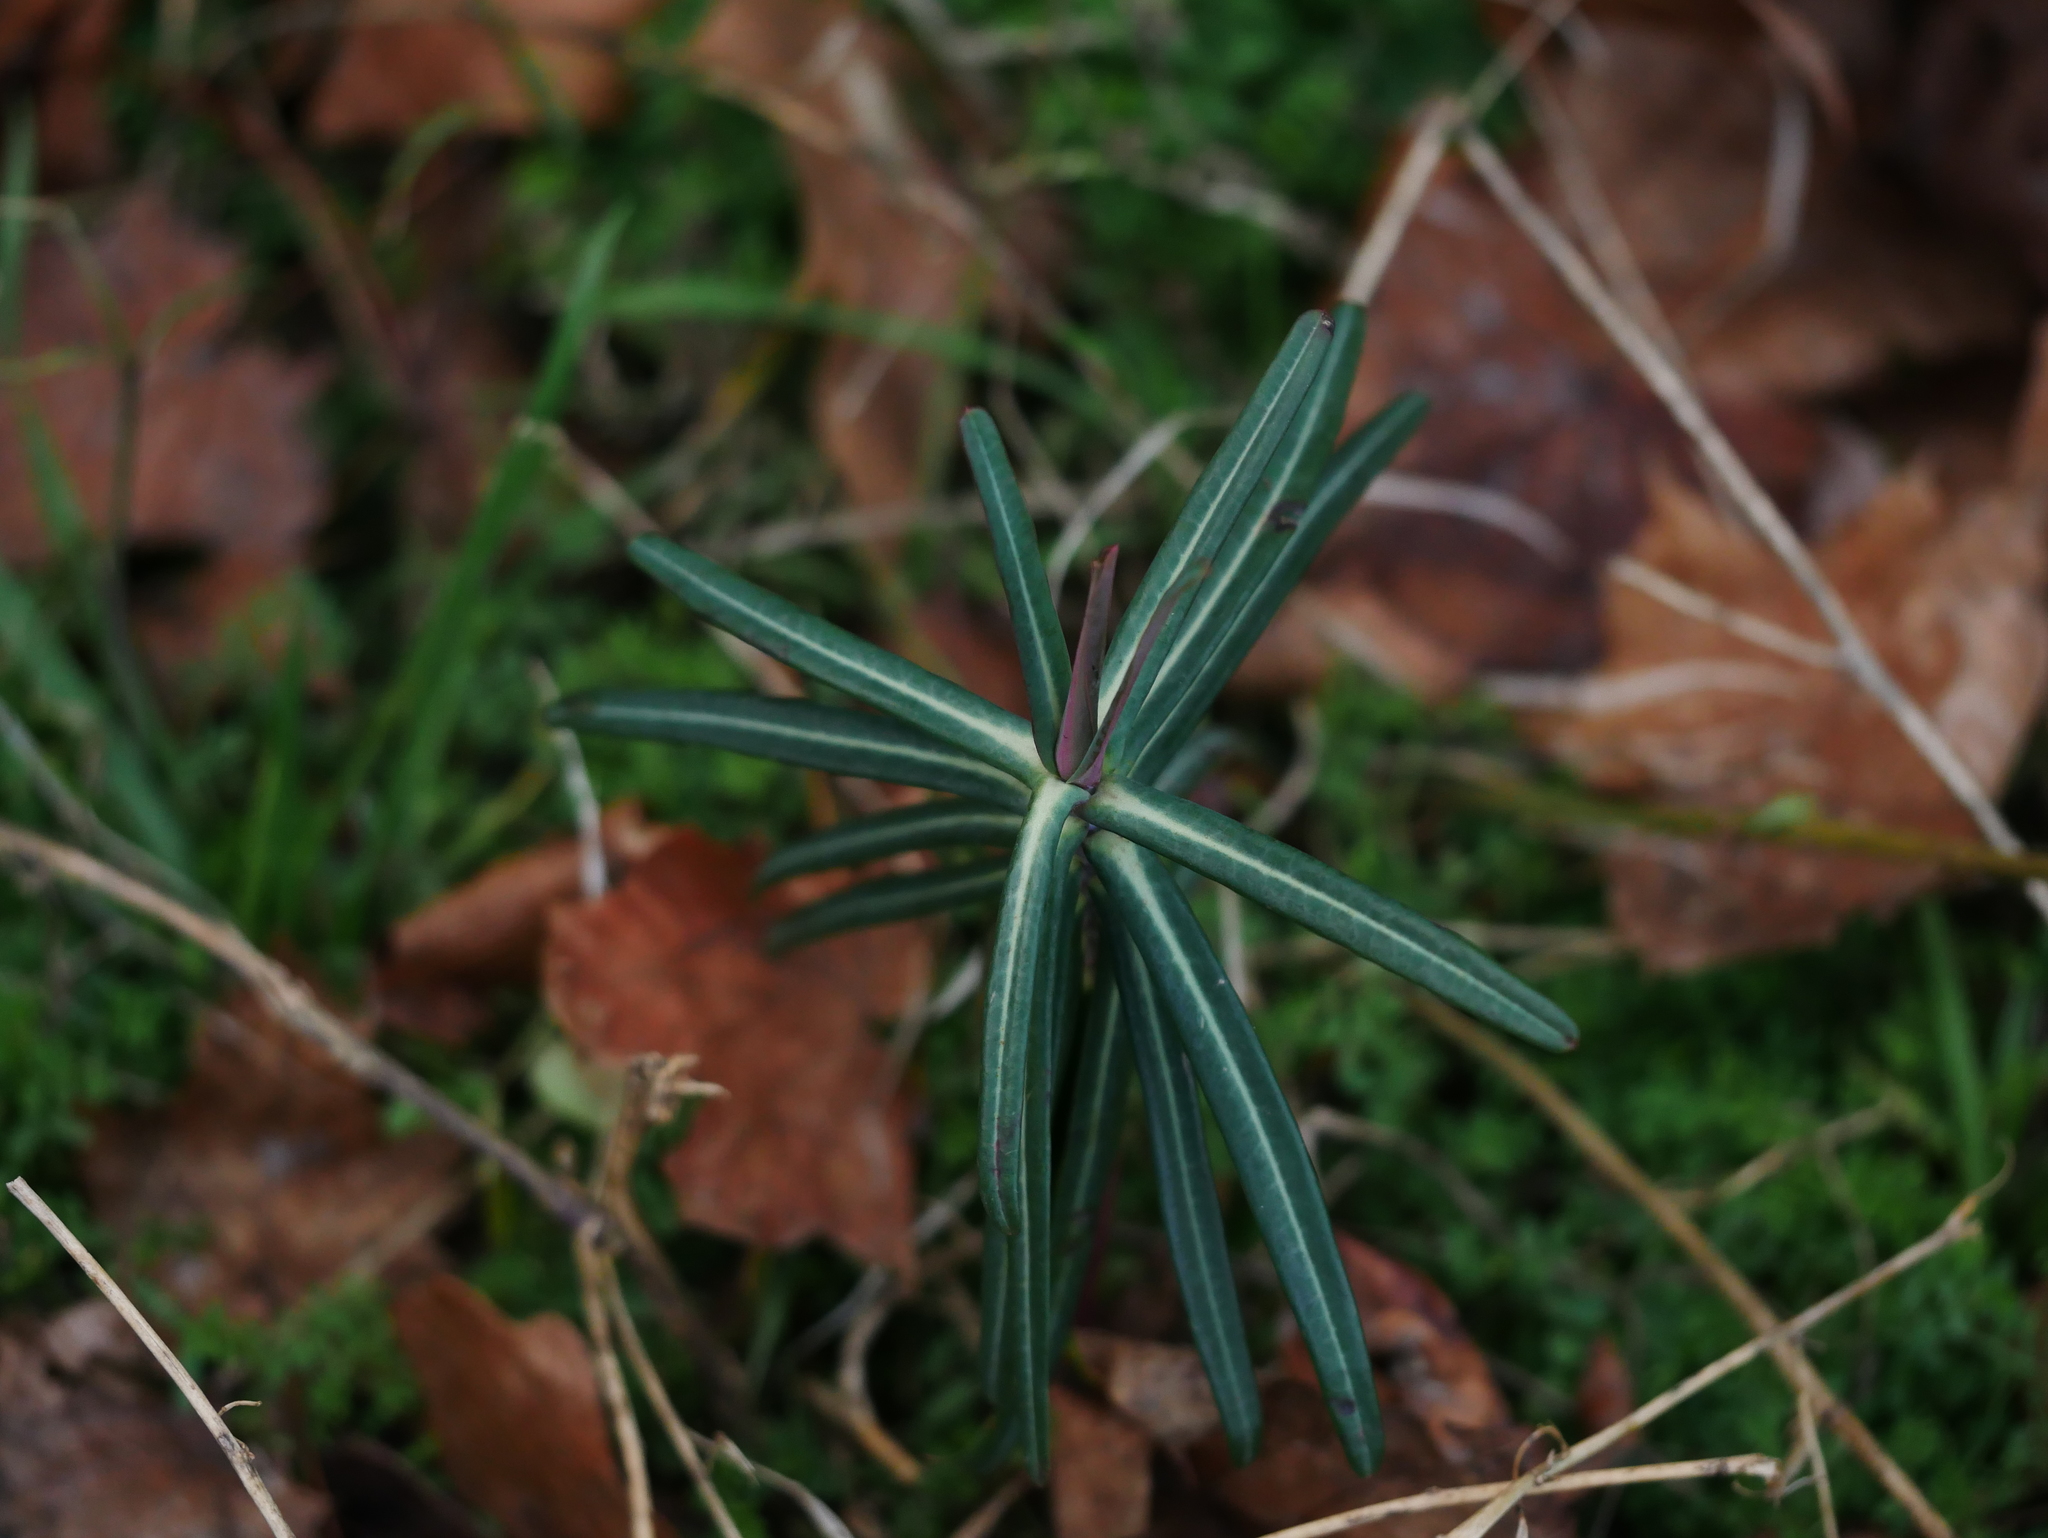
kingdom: Plantae
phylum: Tracheophyta
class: Magnoliopsida
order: Malpighiales
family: Euphorbiaceae
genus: Euphorbia
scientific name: Euphorbia lathyris
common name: Caper spurge
